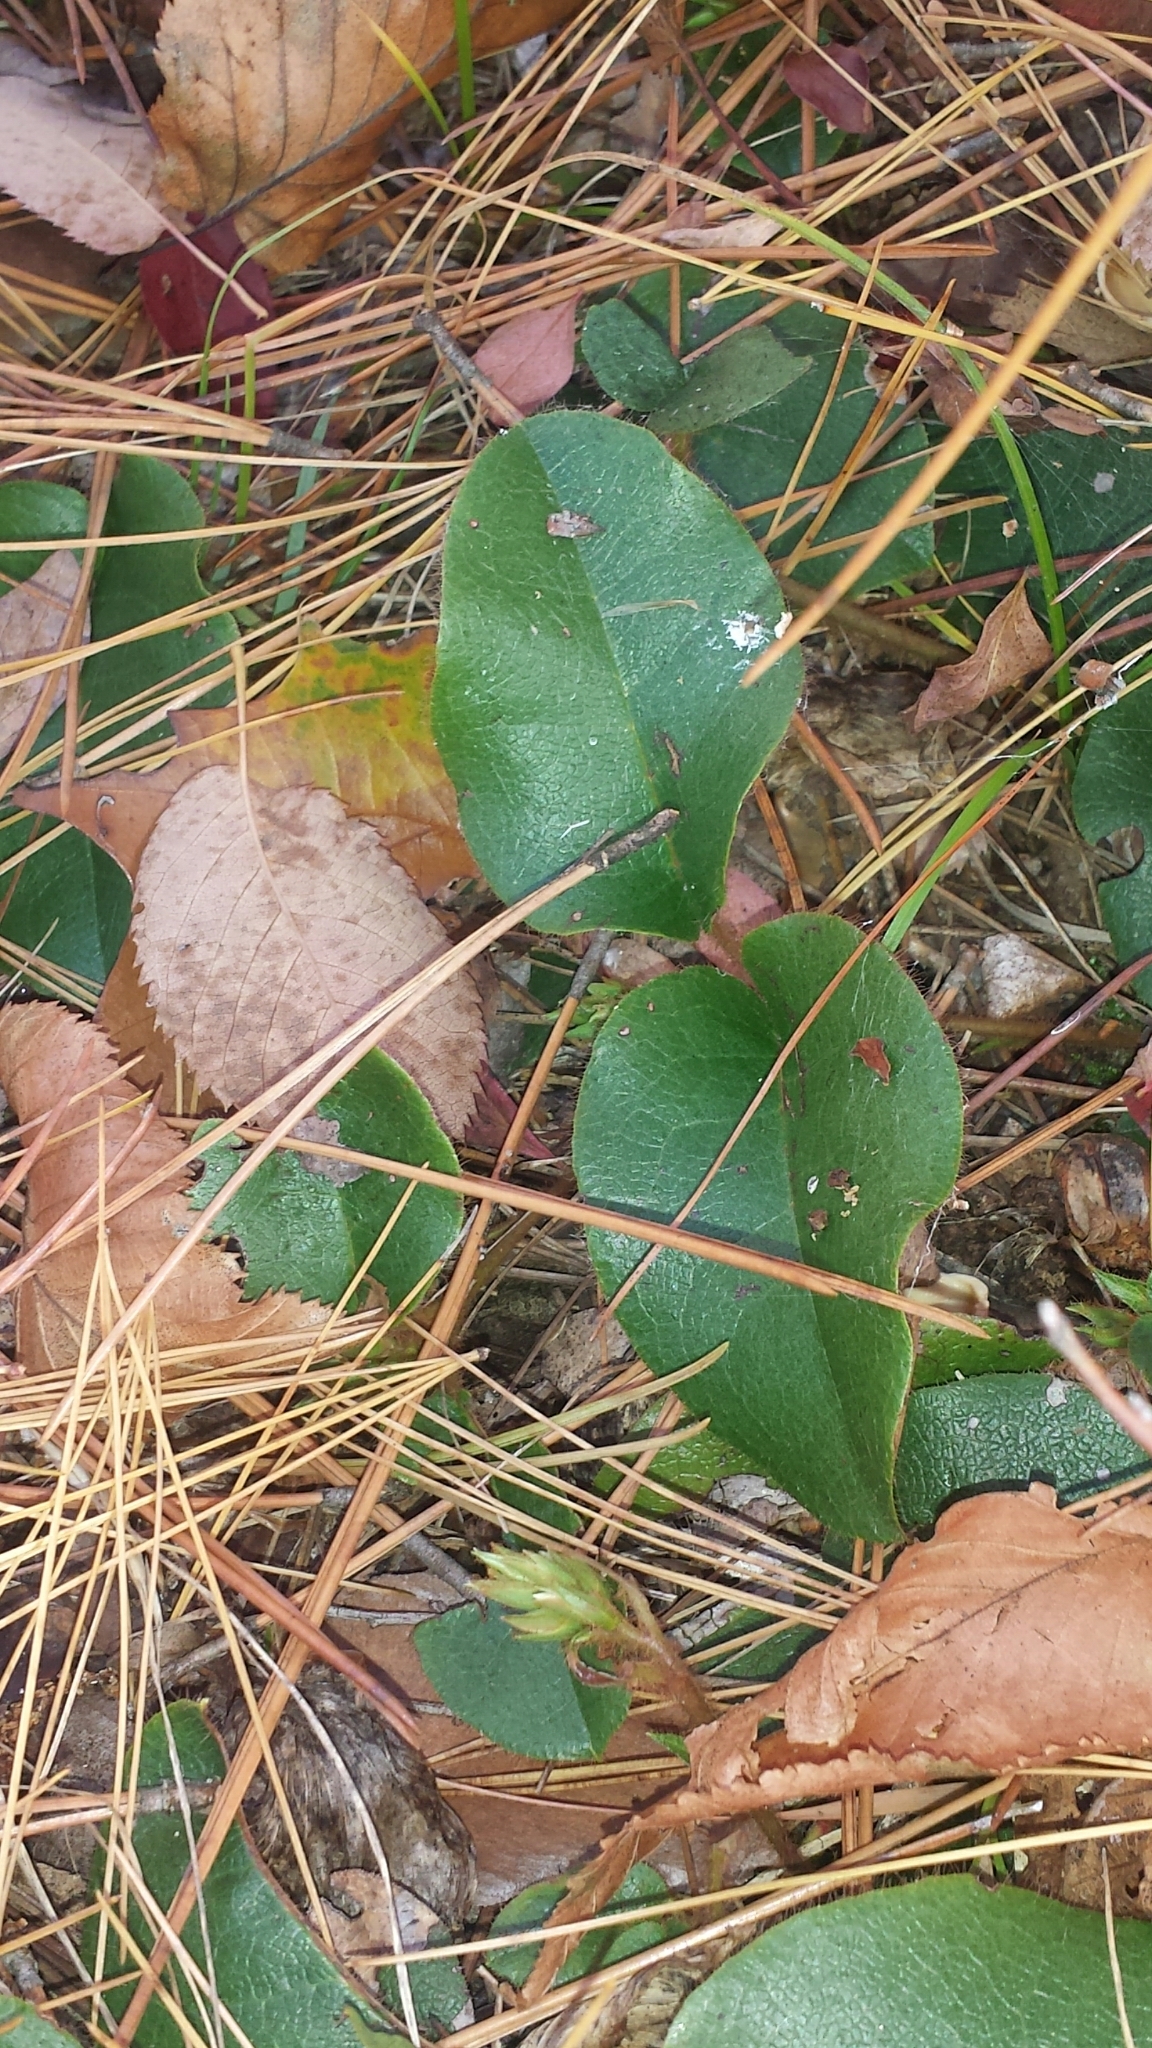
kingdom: Plantae
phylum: Tracheophyta
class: Magnoliopsida
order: Ericales
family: Ericaceae
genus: Epigaea
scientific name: Epigaea repens
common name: Gravelroot
